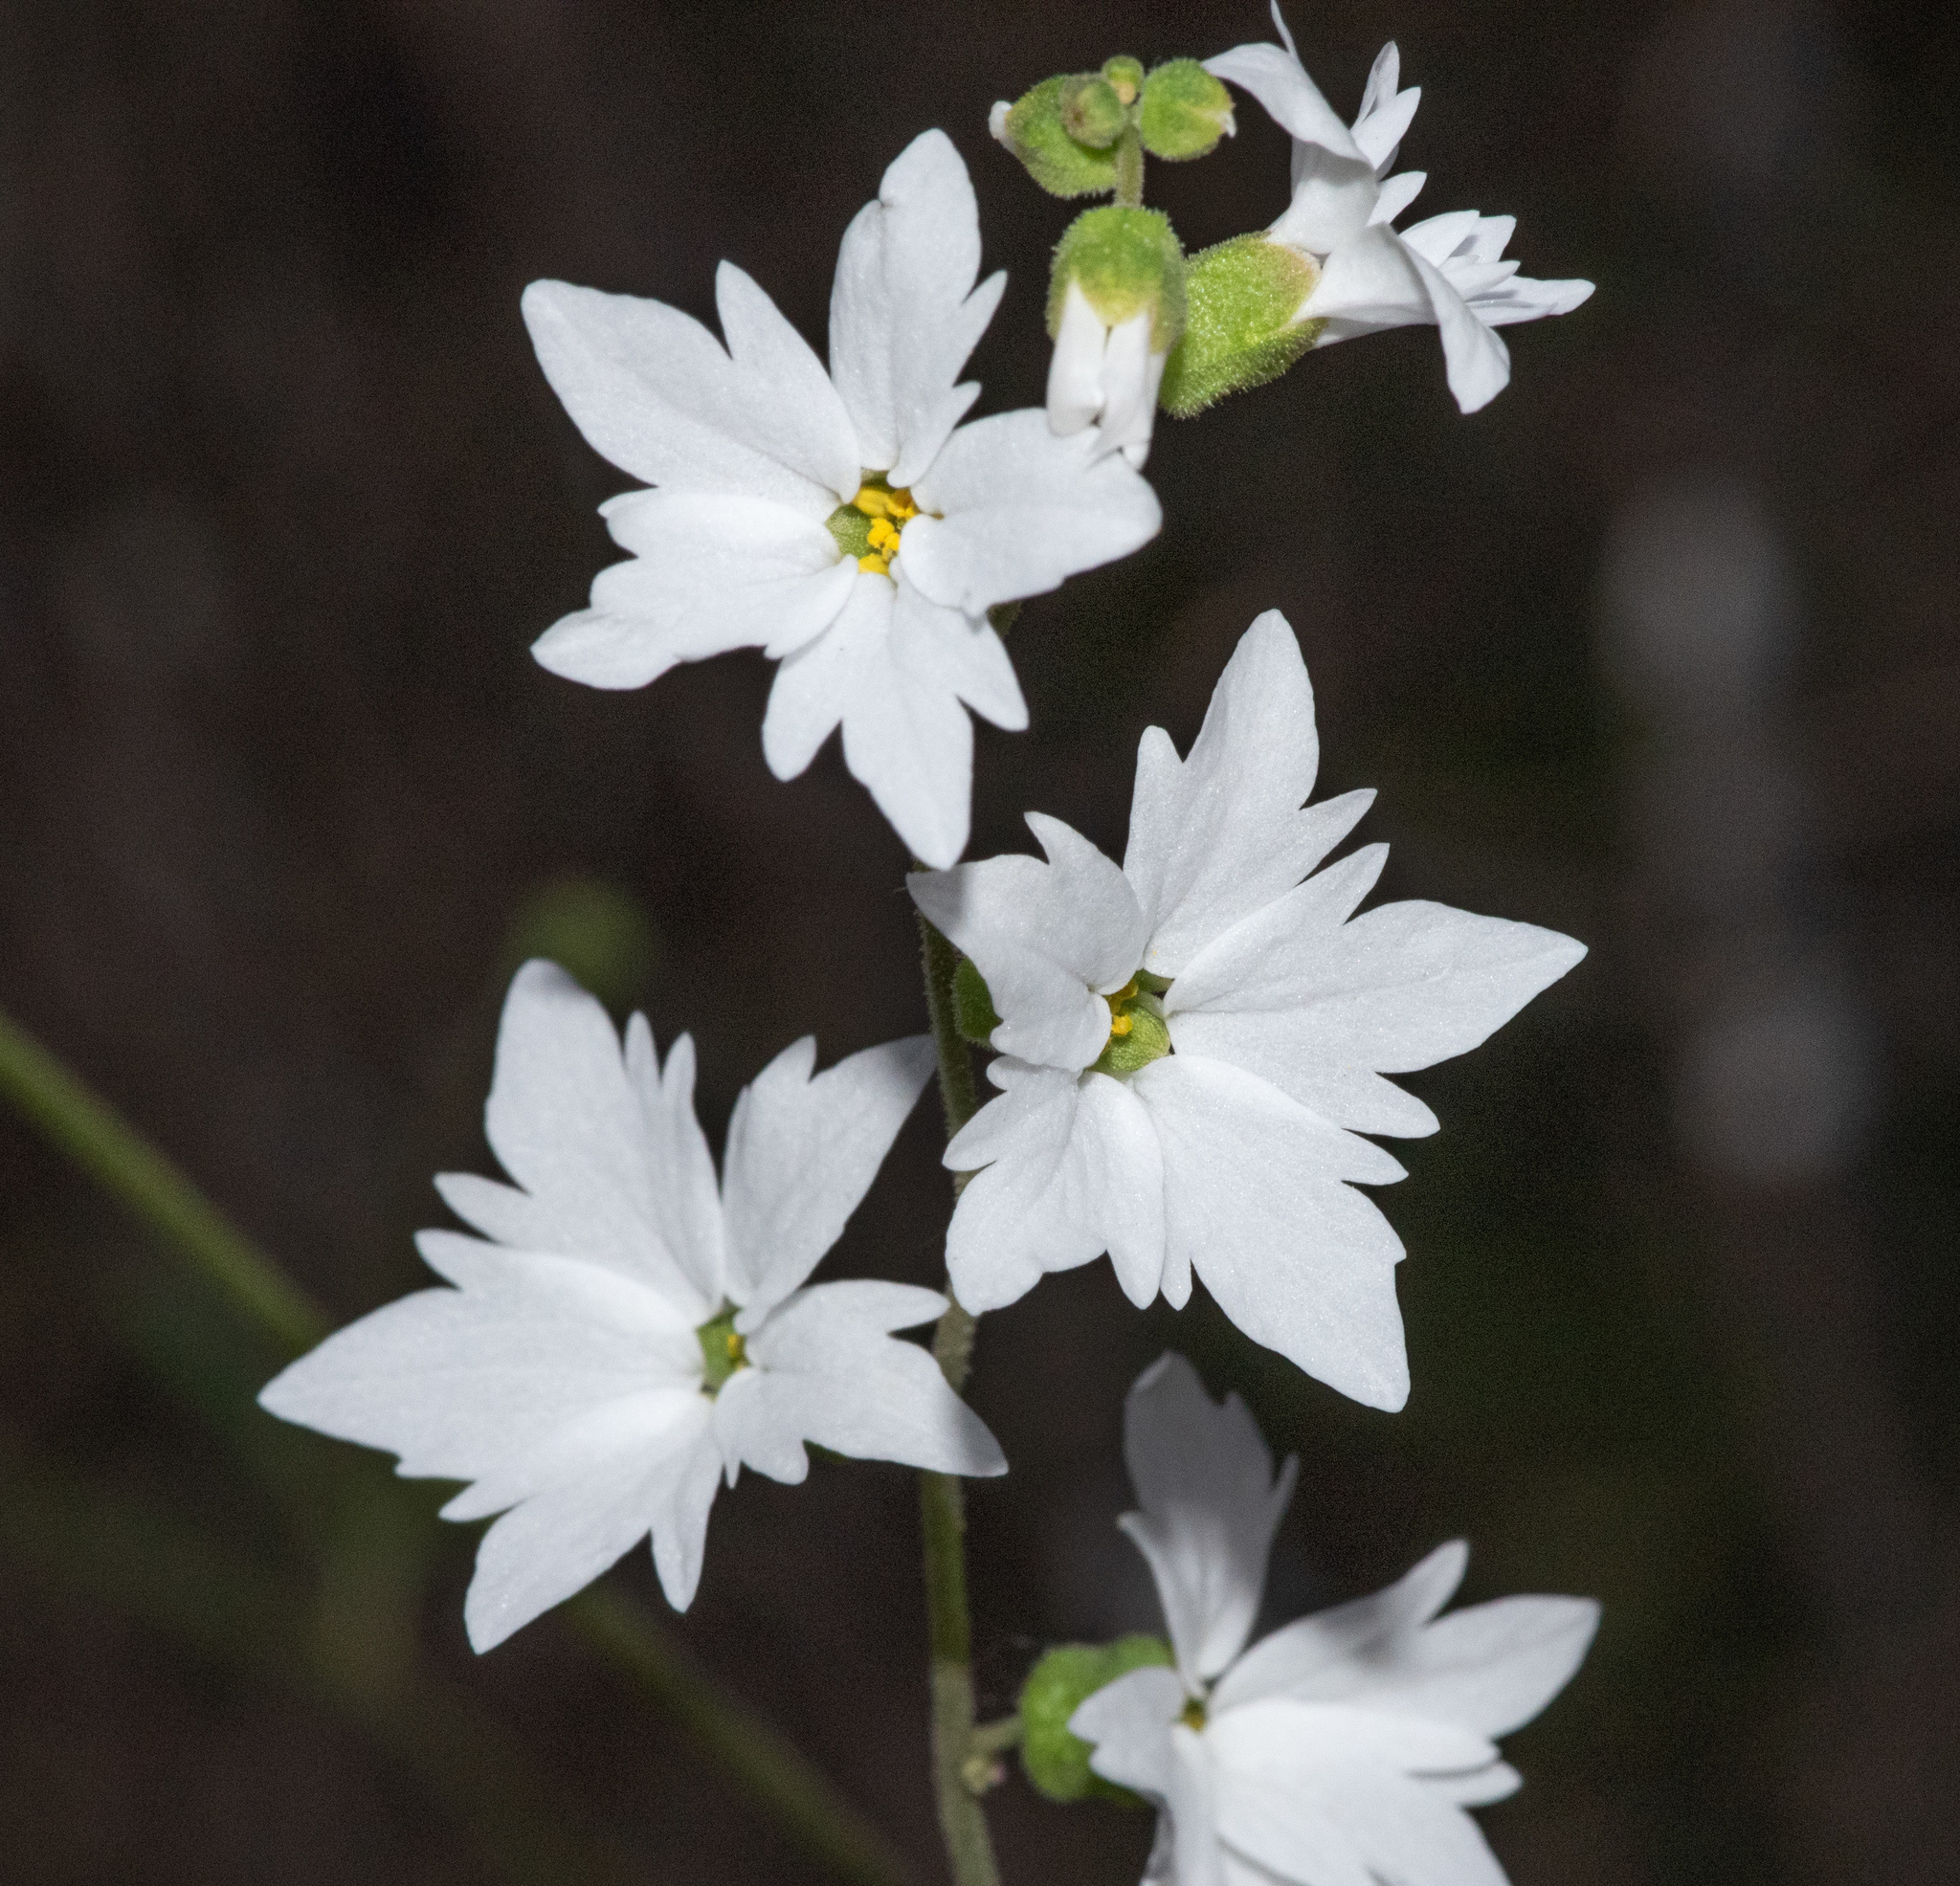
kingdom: Plantae
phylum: Tracheophyta
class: Magnoliopsida
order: Saxifragales
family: Saxifragaceae
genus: Lithophragma
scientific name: Lithophragma heterophyllum
